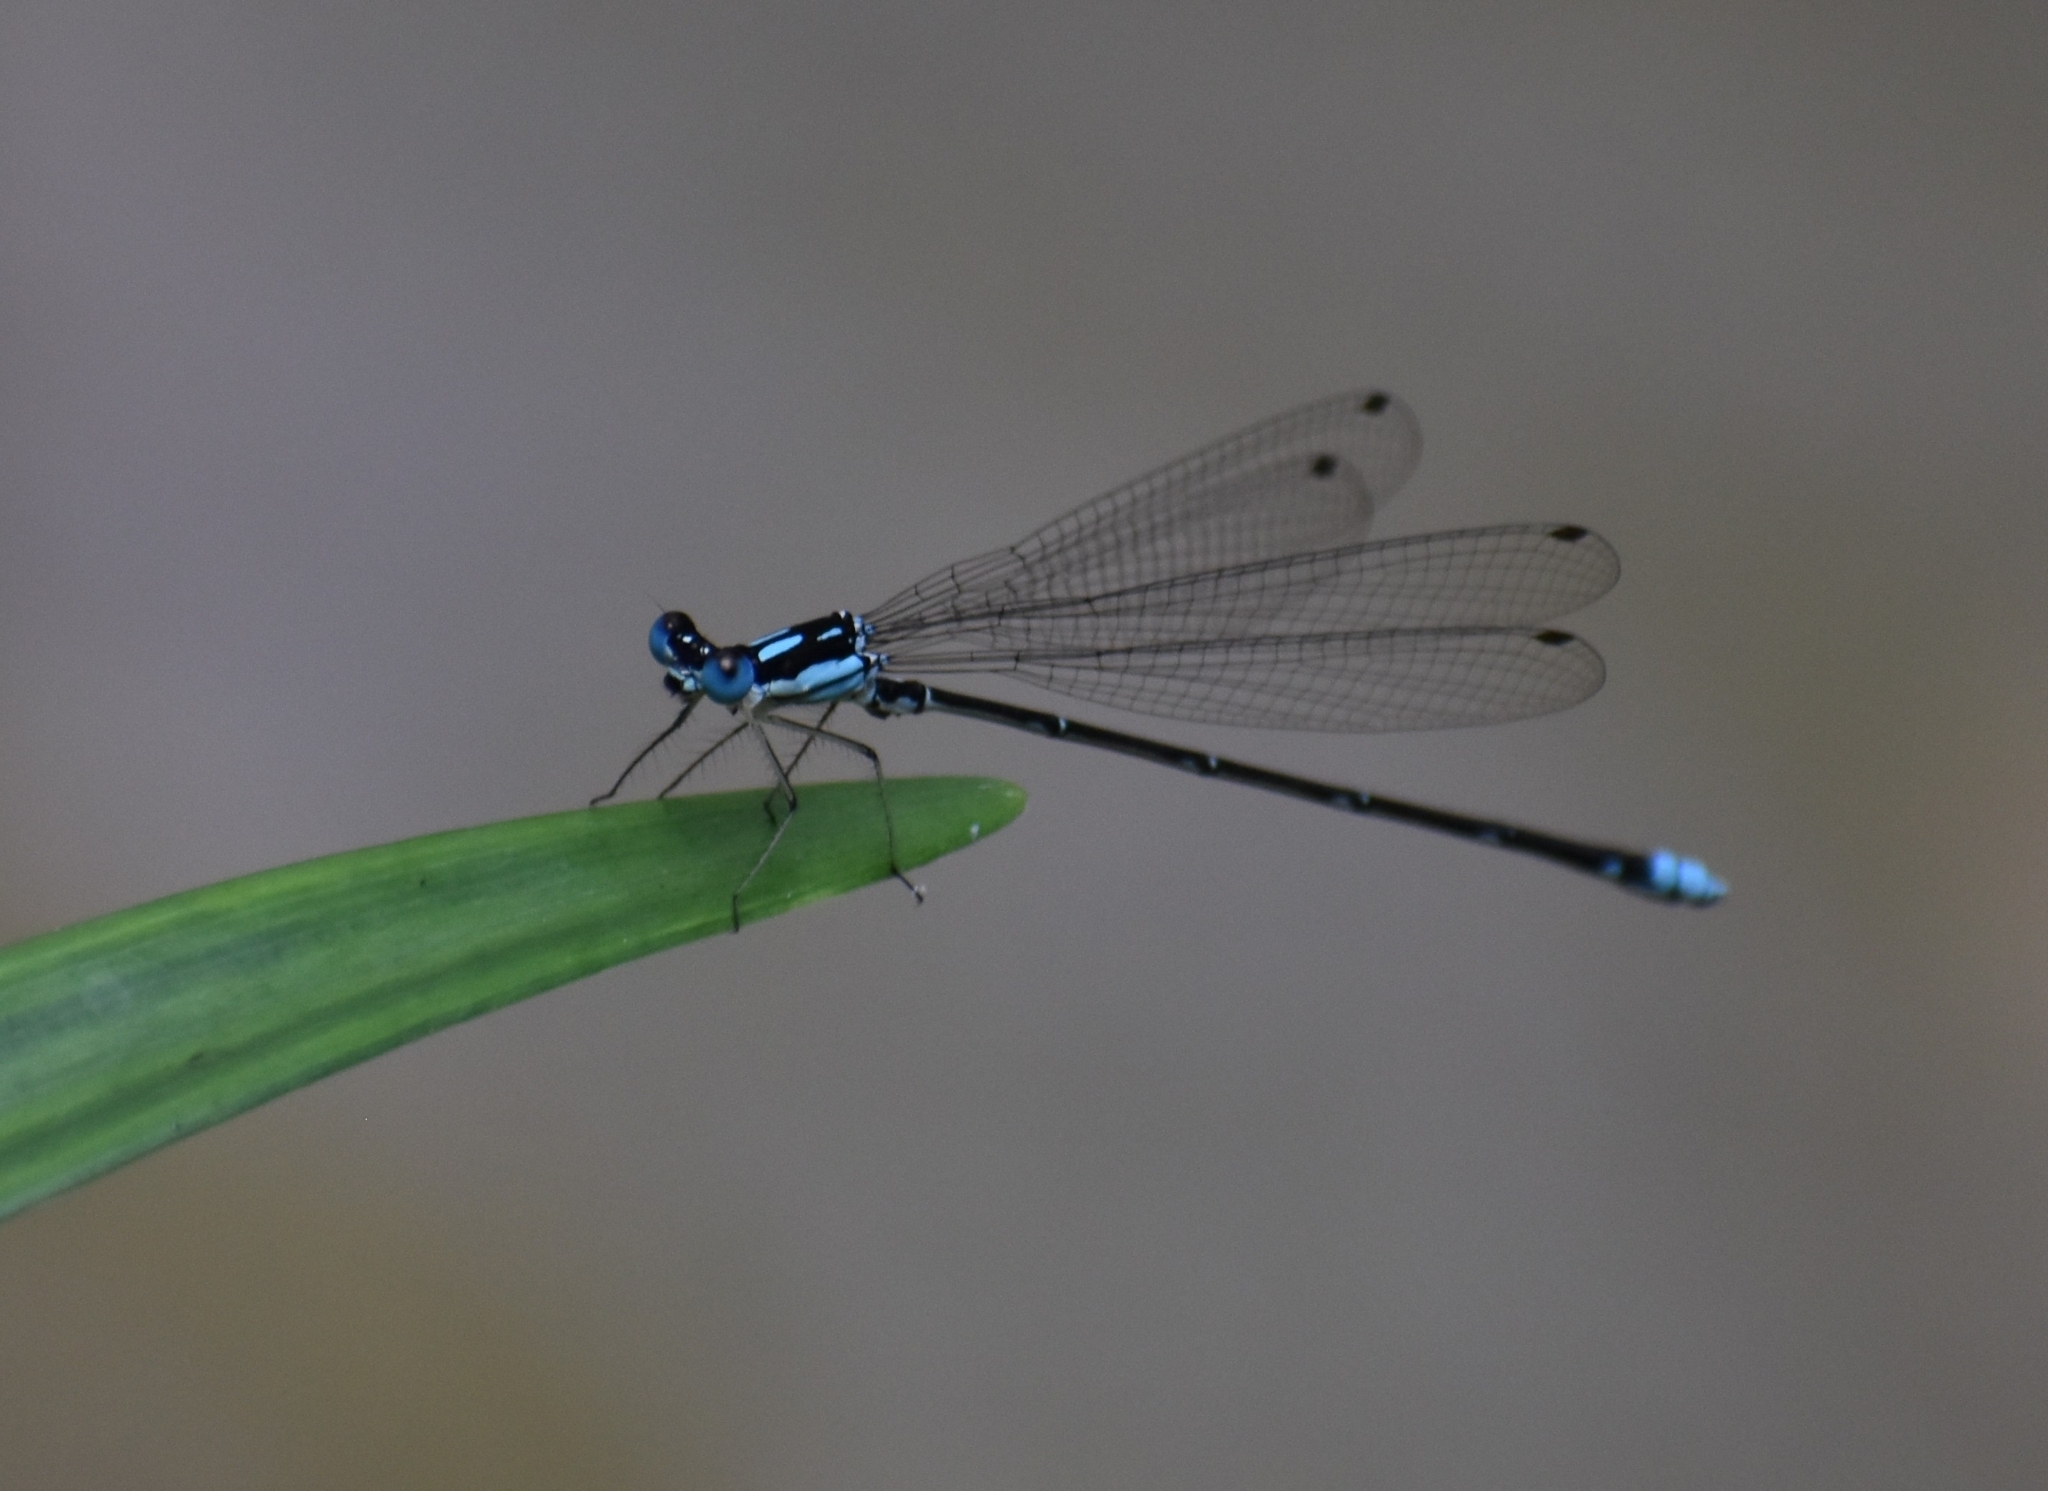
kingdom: Animalia
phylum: Arthropoda
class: Insecta
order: Odonata
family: Platycnemididae
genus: Coeliccia
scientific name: Coeliccia cyanomelas
